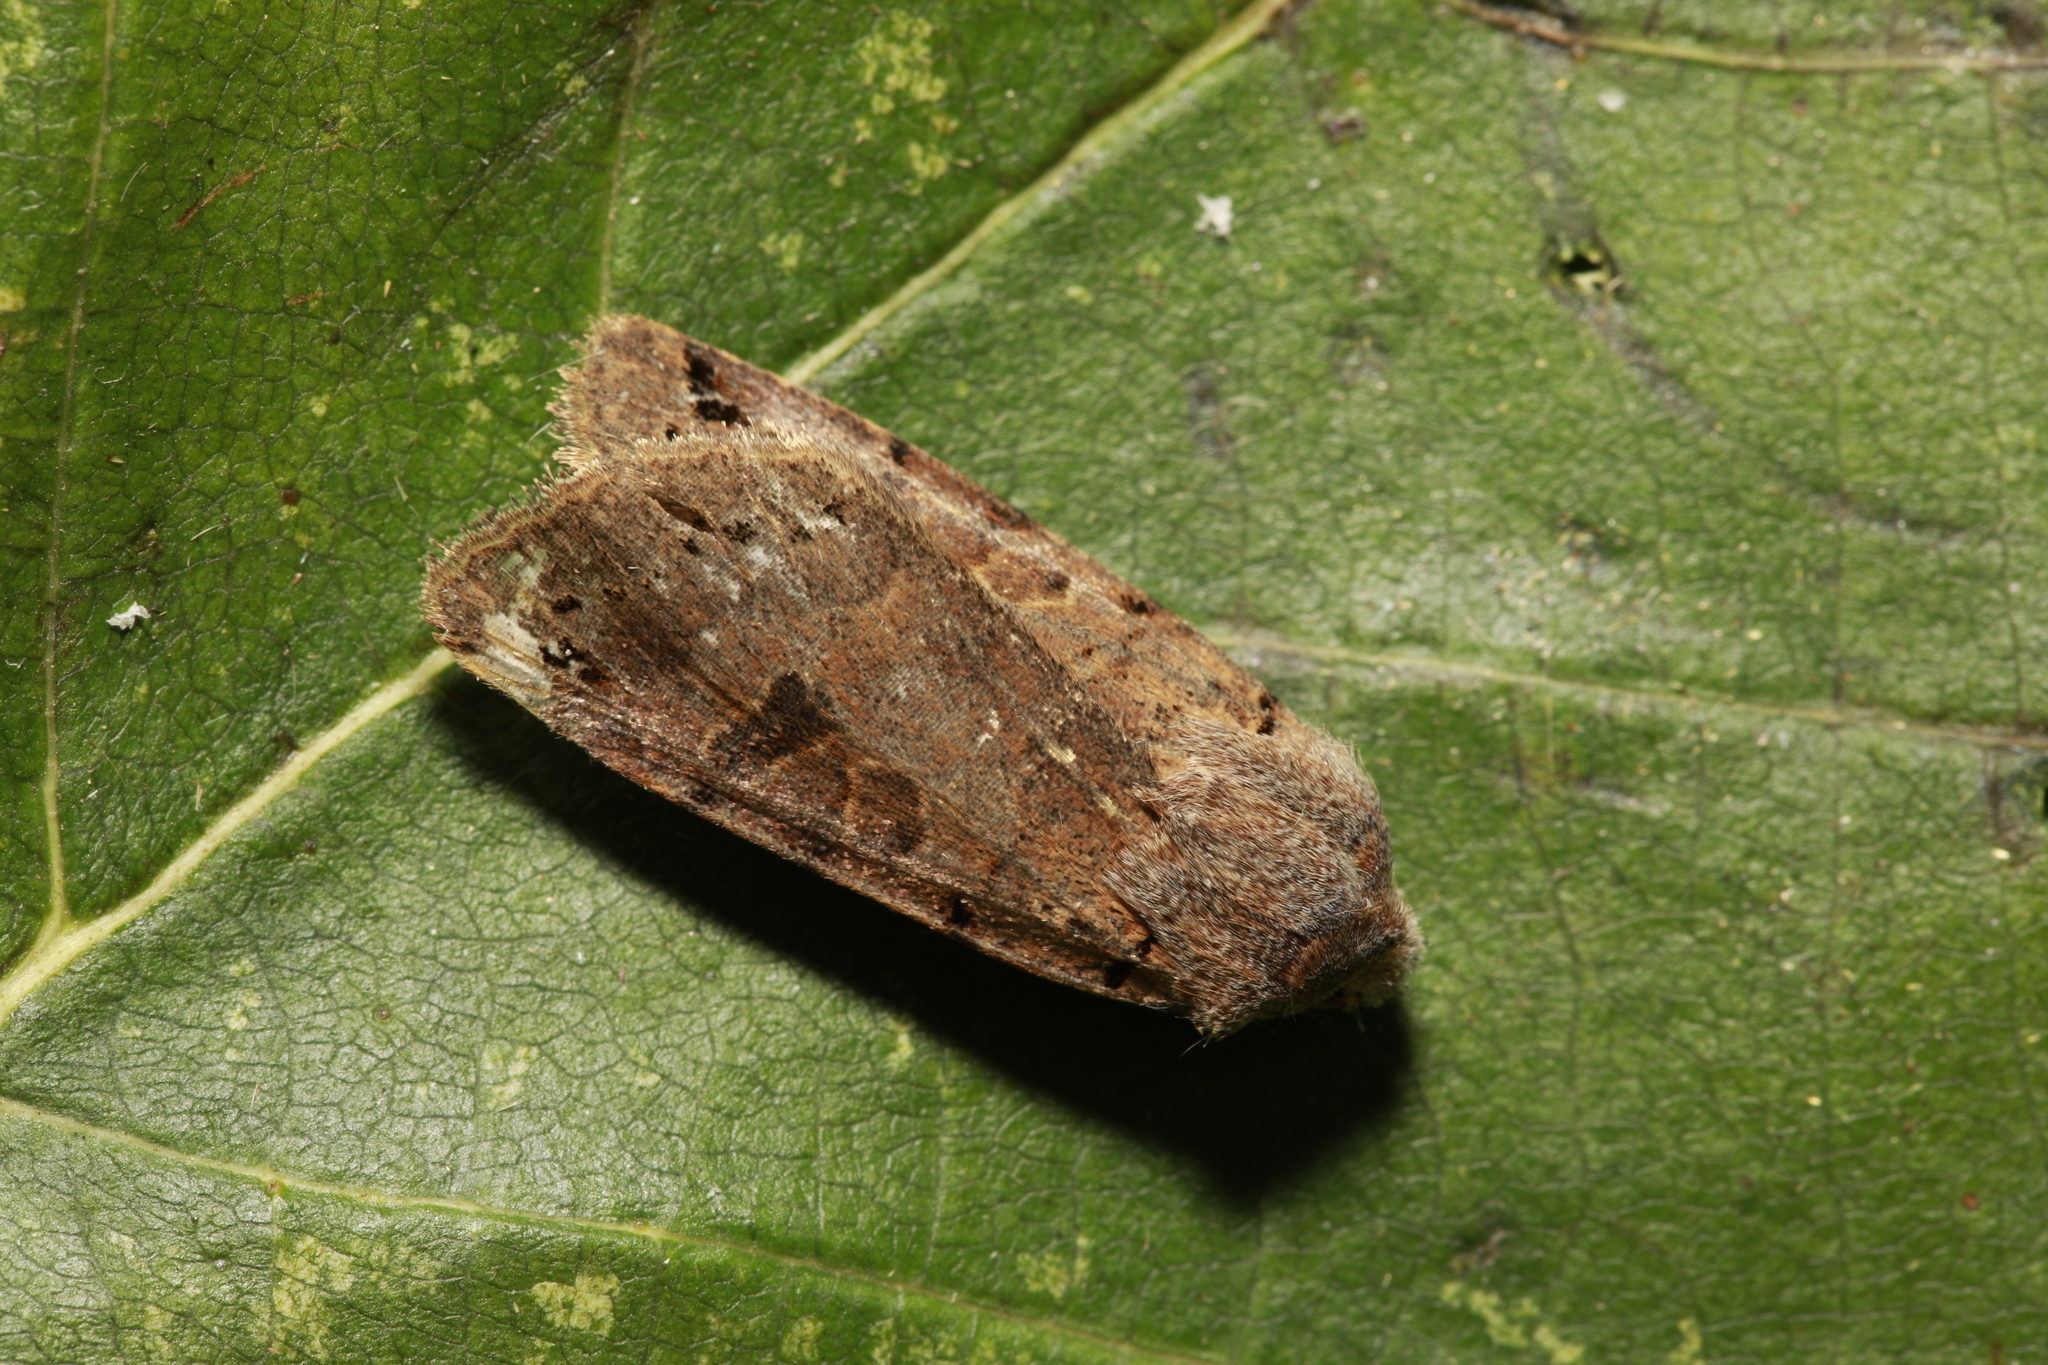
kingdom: Animalia
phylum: Arthropoda
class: Insecta
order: Lepidoptera
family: Noctuidae
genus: Agrochola
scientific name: Agrochola litura
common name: Brown-spot pinion
